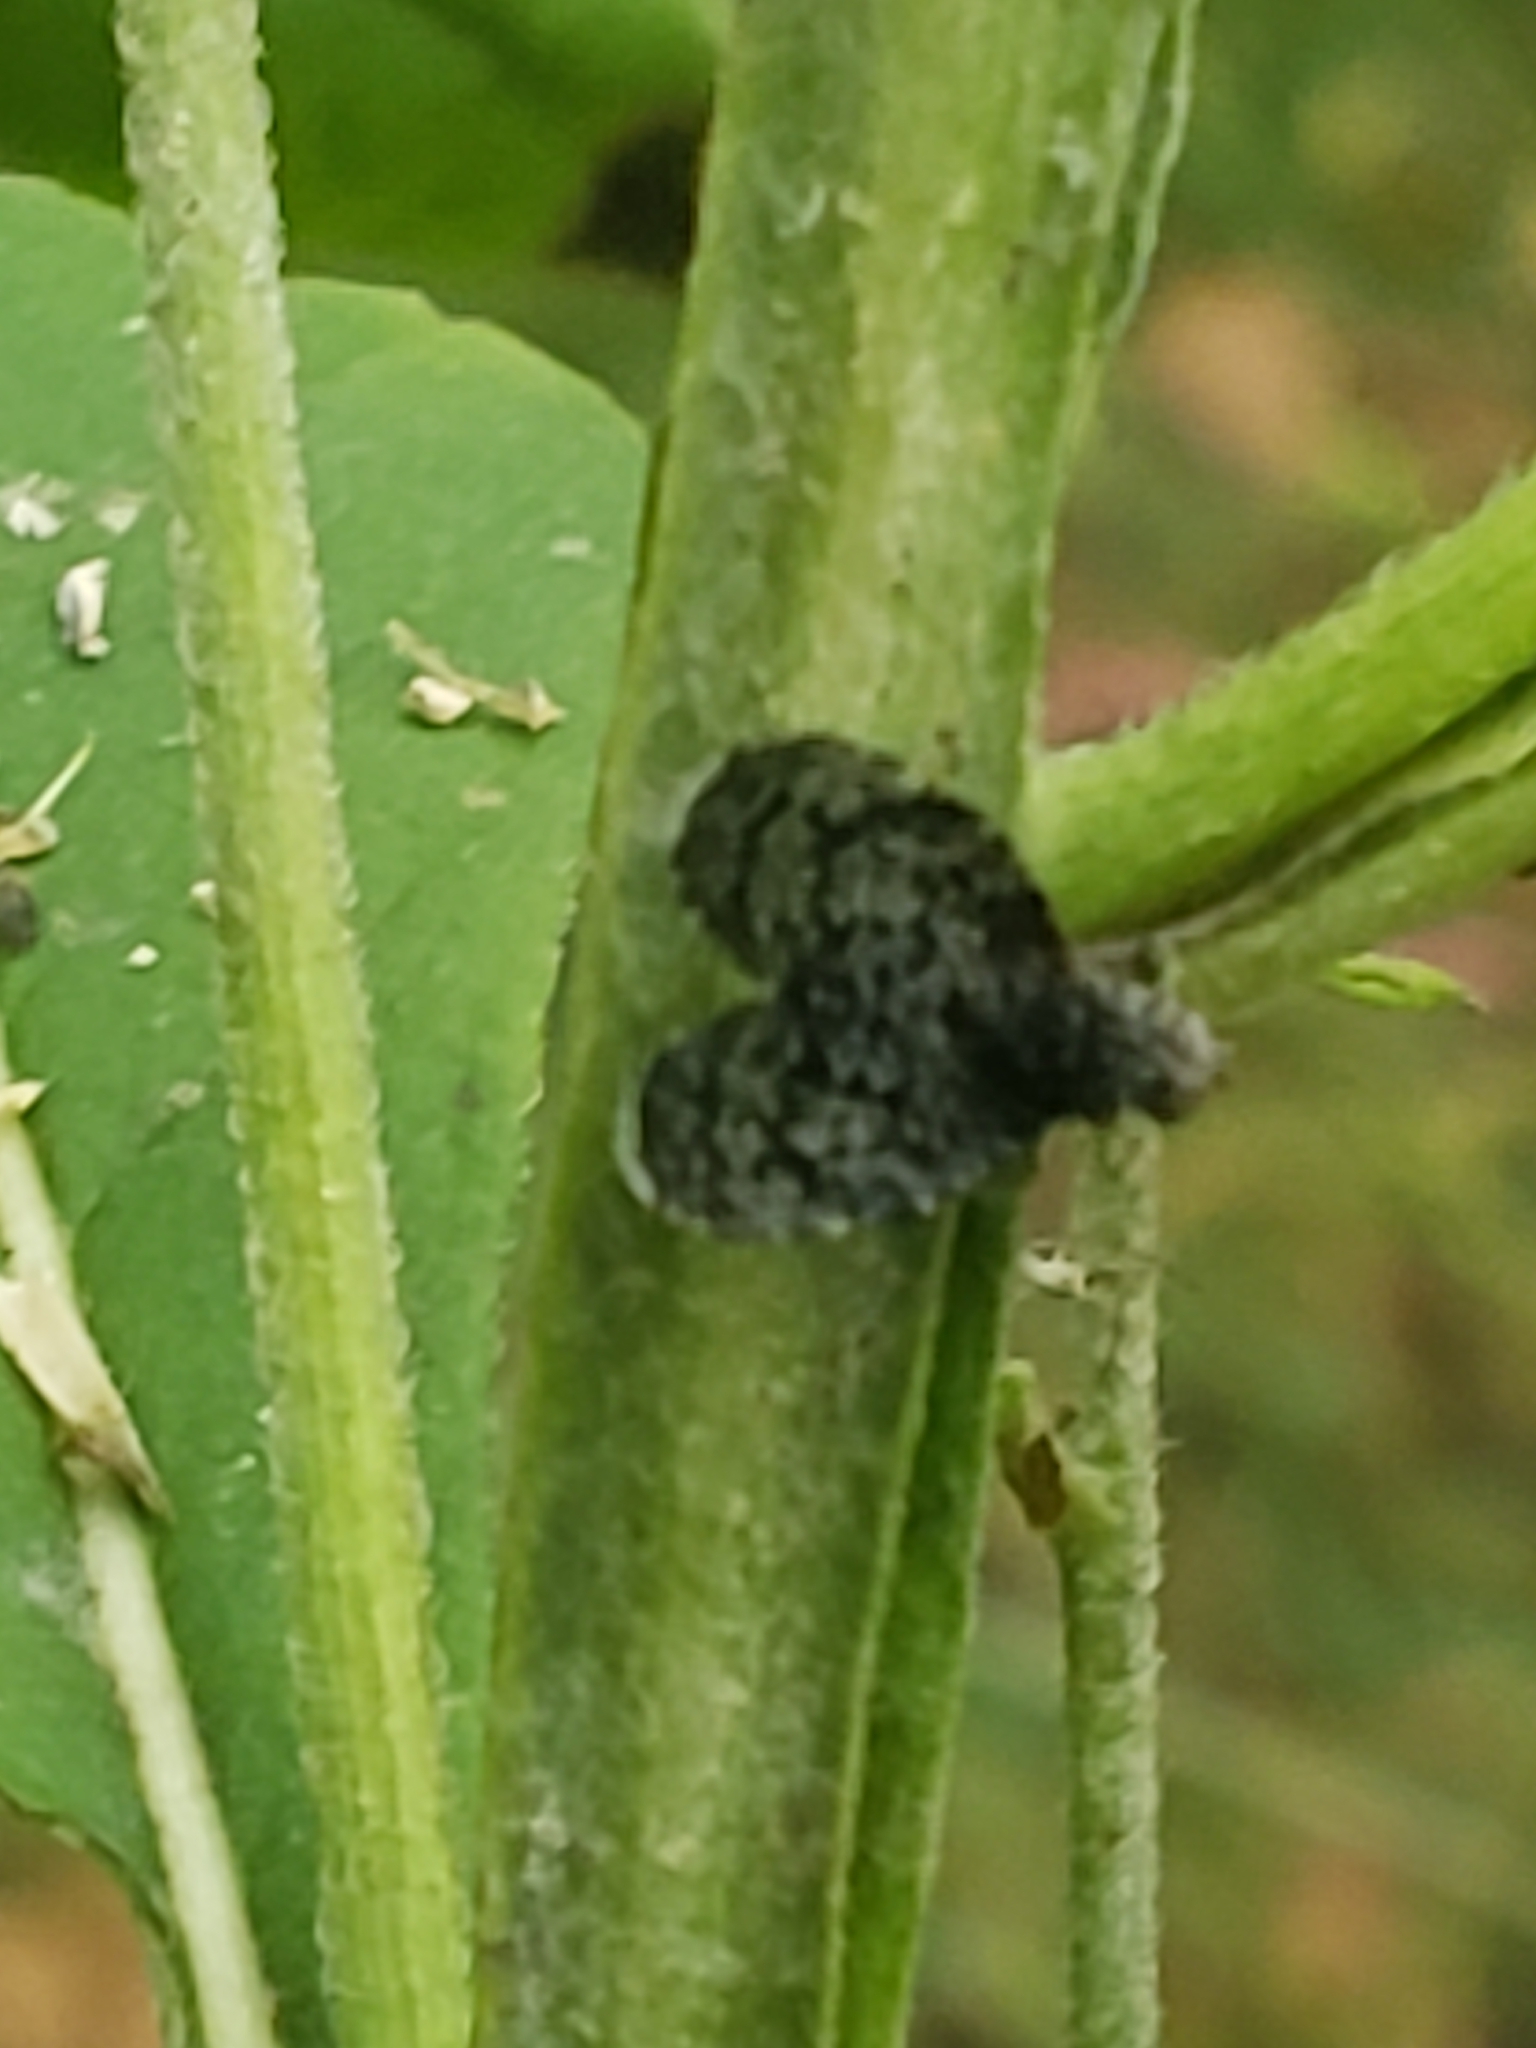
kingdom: Animalia
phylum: Arthropoda
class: Insecta
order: Diptera
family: Tephritidae
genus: Eutreta
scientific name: Eutreta rotundipennis
